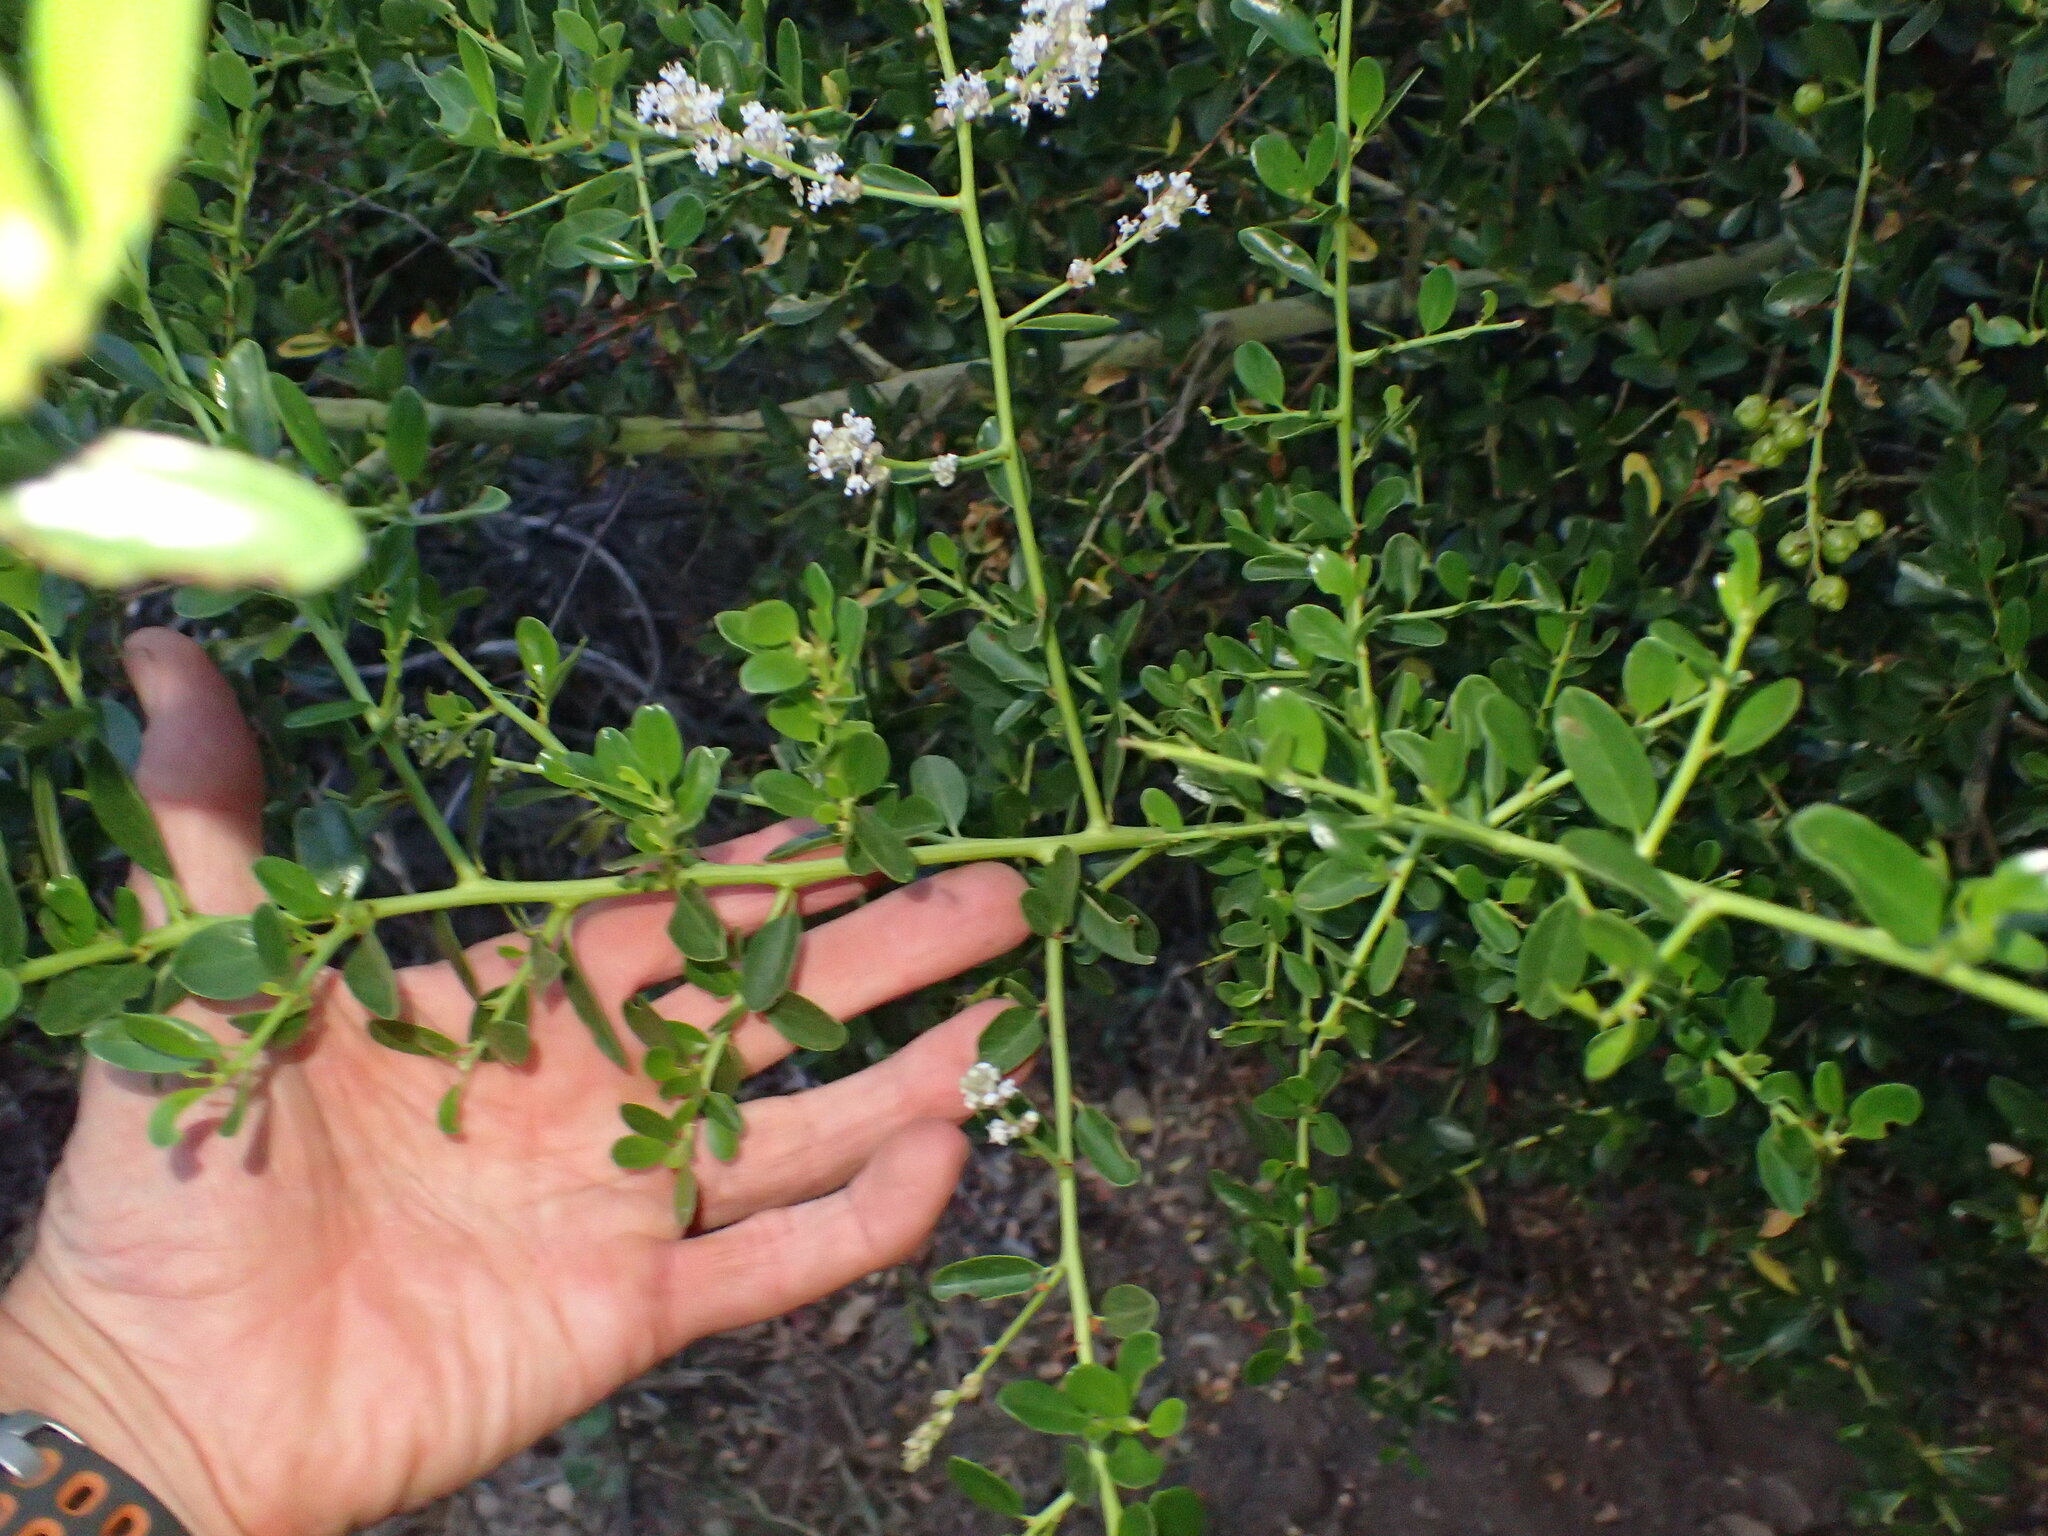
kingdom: Plantae
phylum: Tracheophyta
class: Magnoliopsida
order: Rosales
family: Rhamnaceae
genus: Ceanothus
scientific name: Ceanothus spinosus
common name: Greenbark whitethorn
